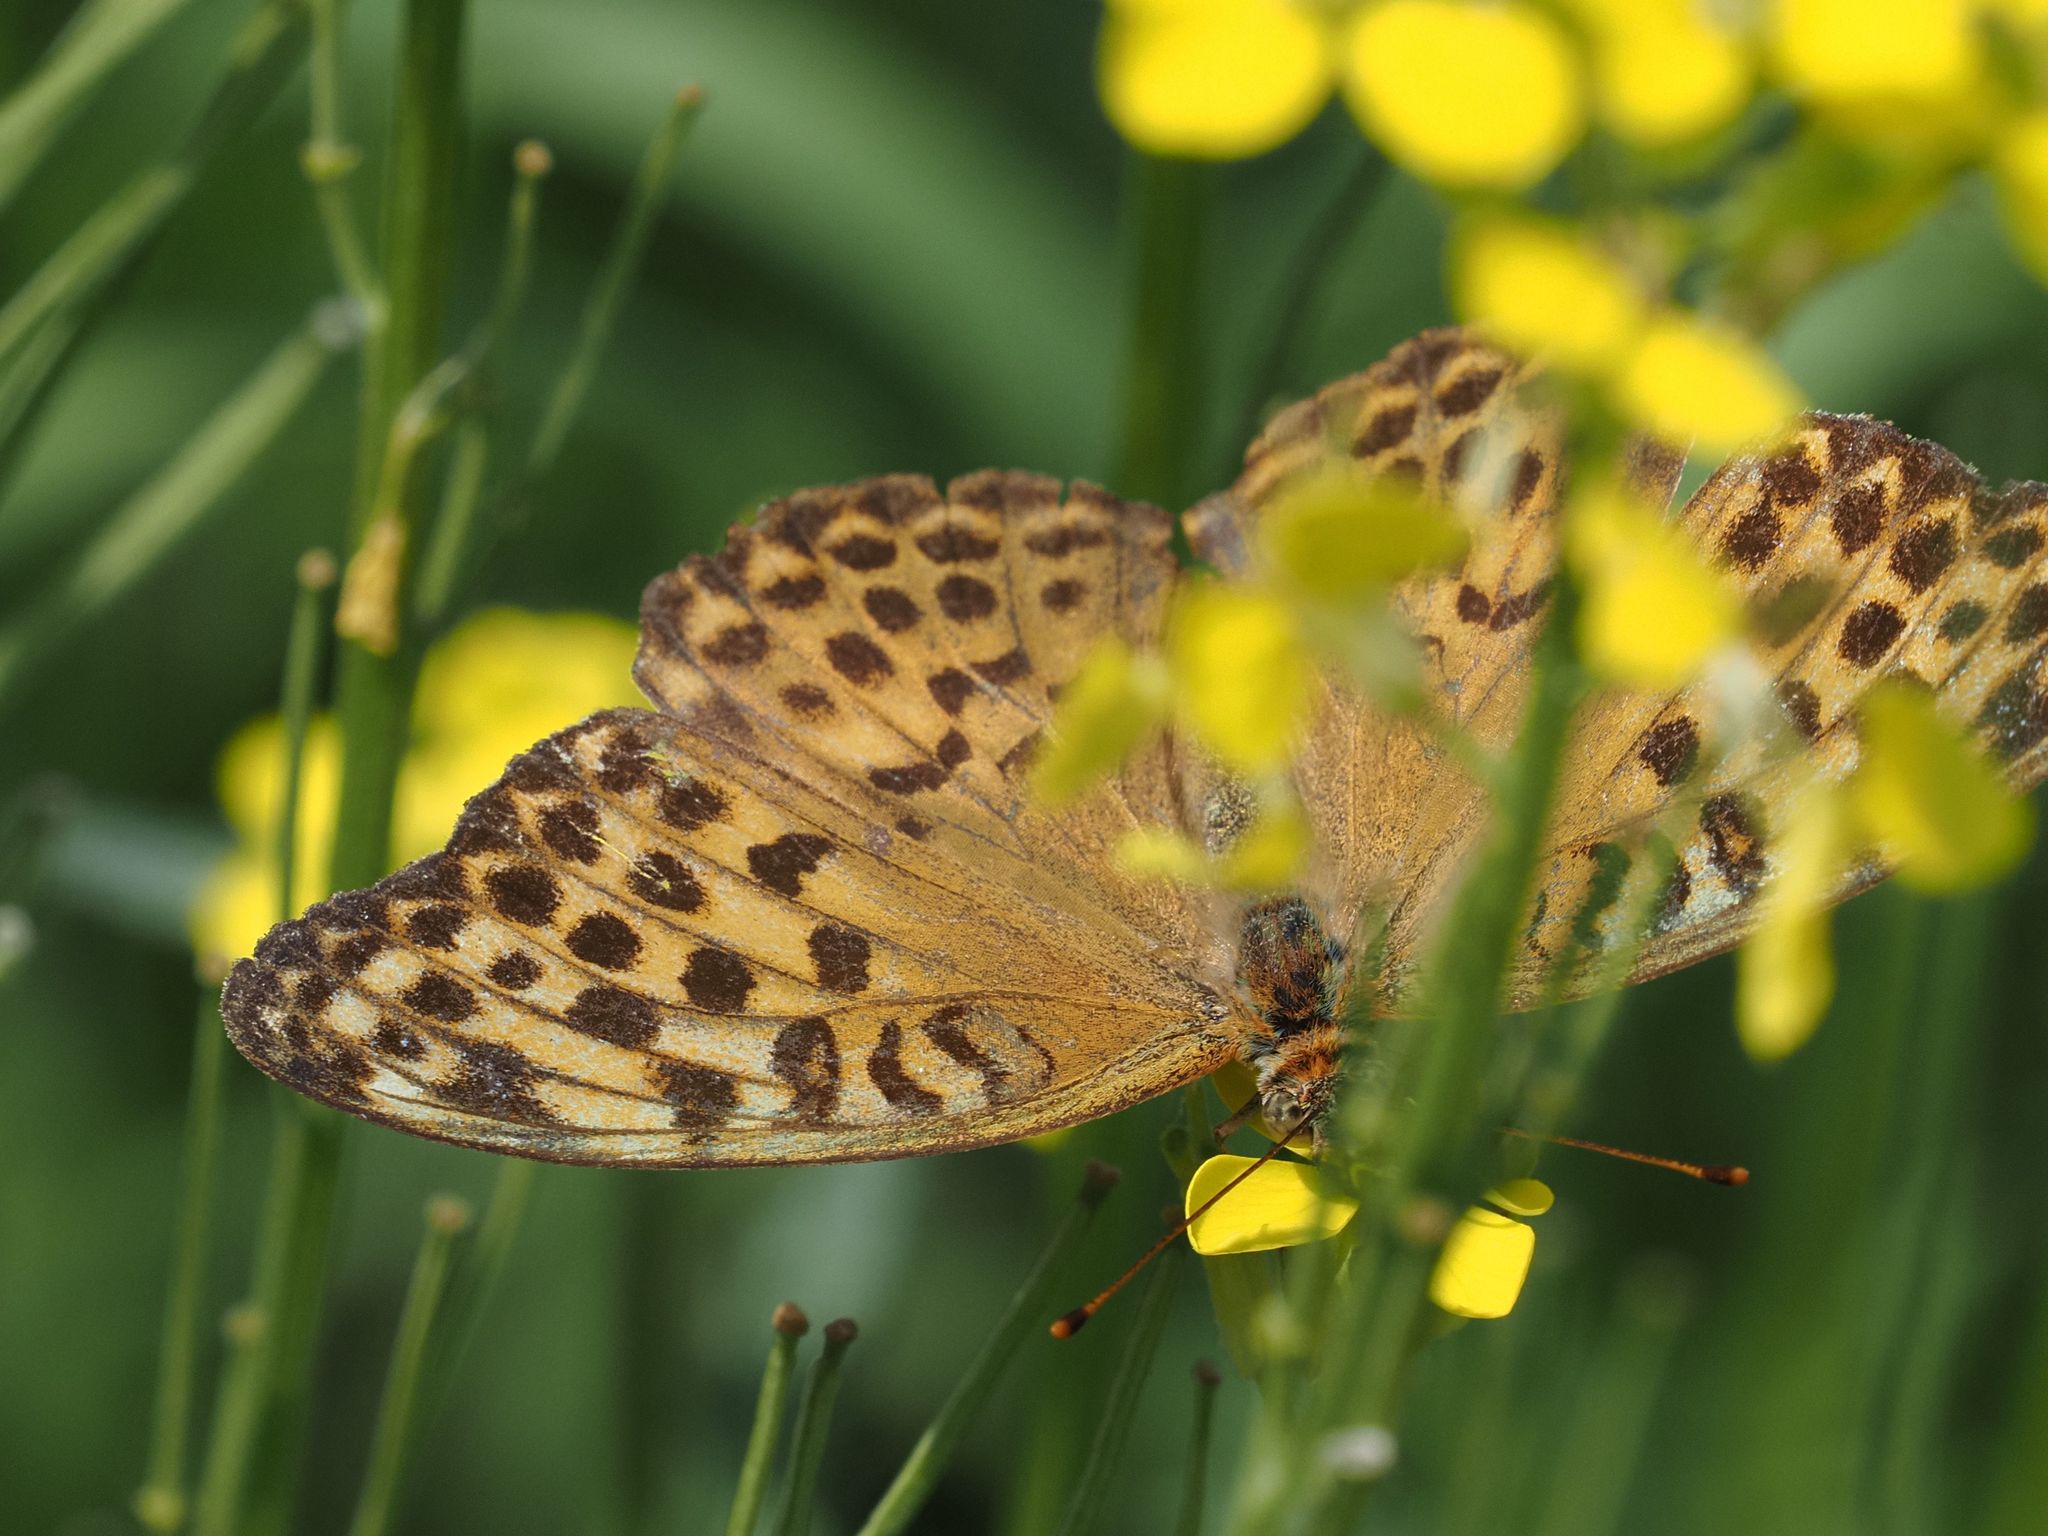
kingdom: Animalia
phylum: Arthropoda
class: Insecta
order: Lepidoptera
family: Nymphalidae
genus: Argynnis
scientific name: Argynnis paphia
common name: Silver-washed fritillary
